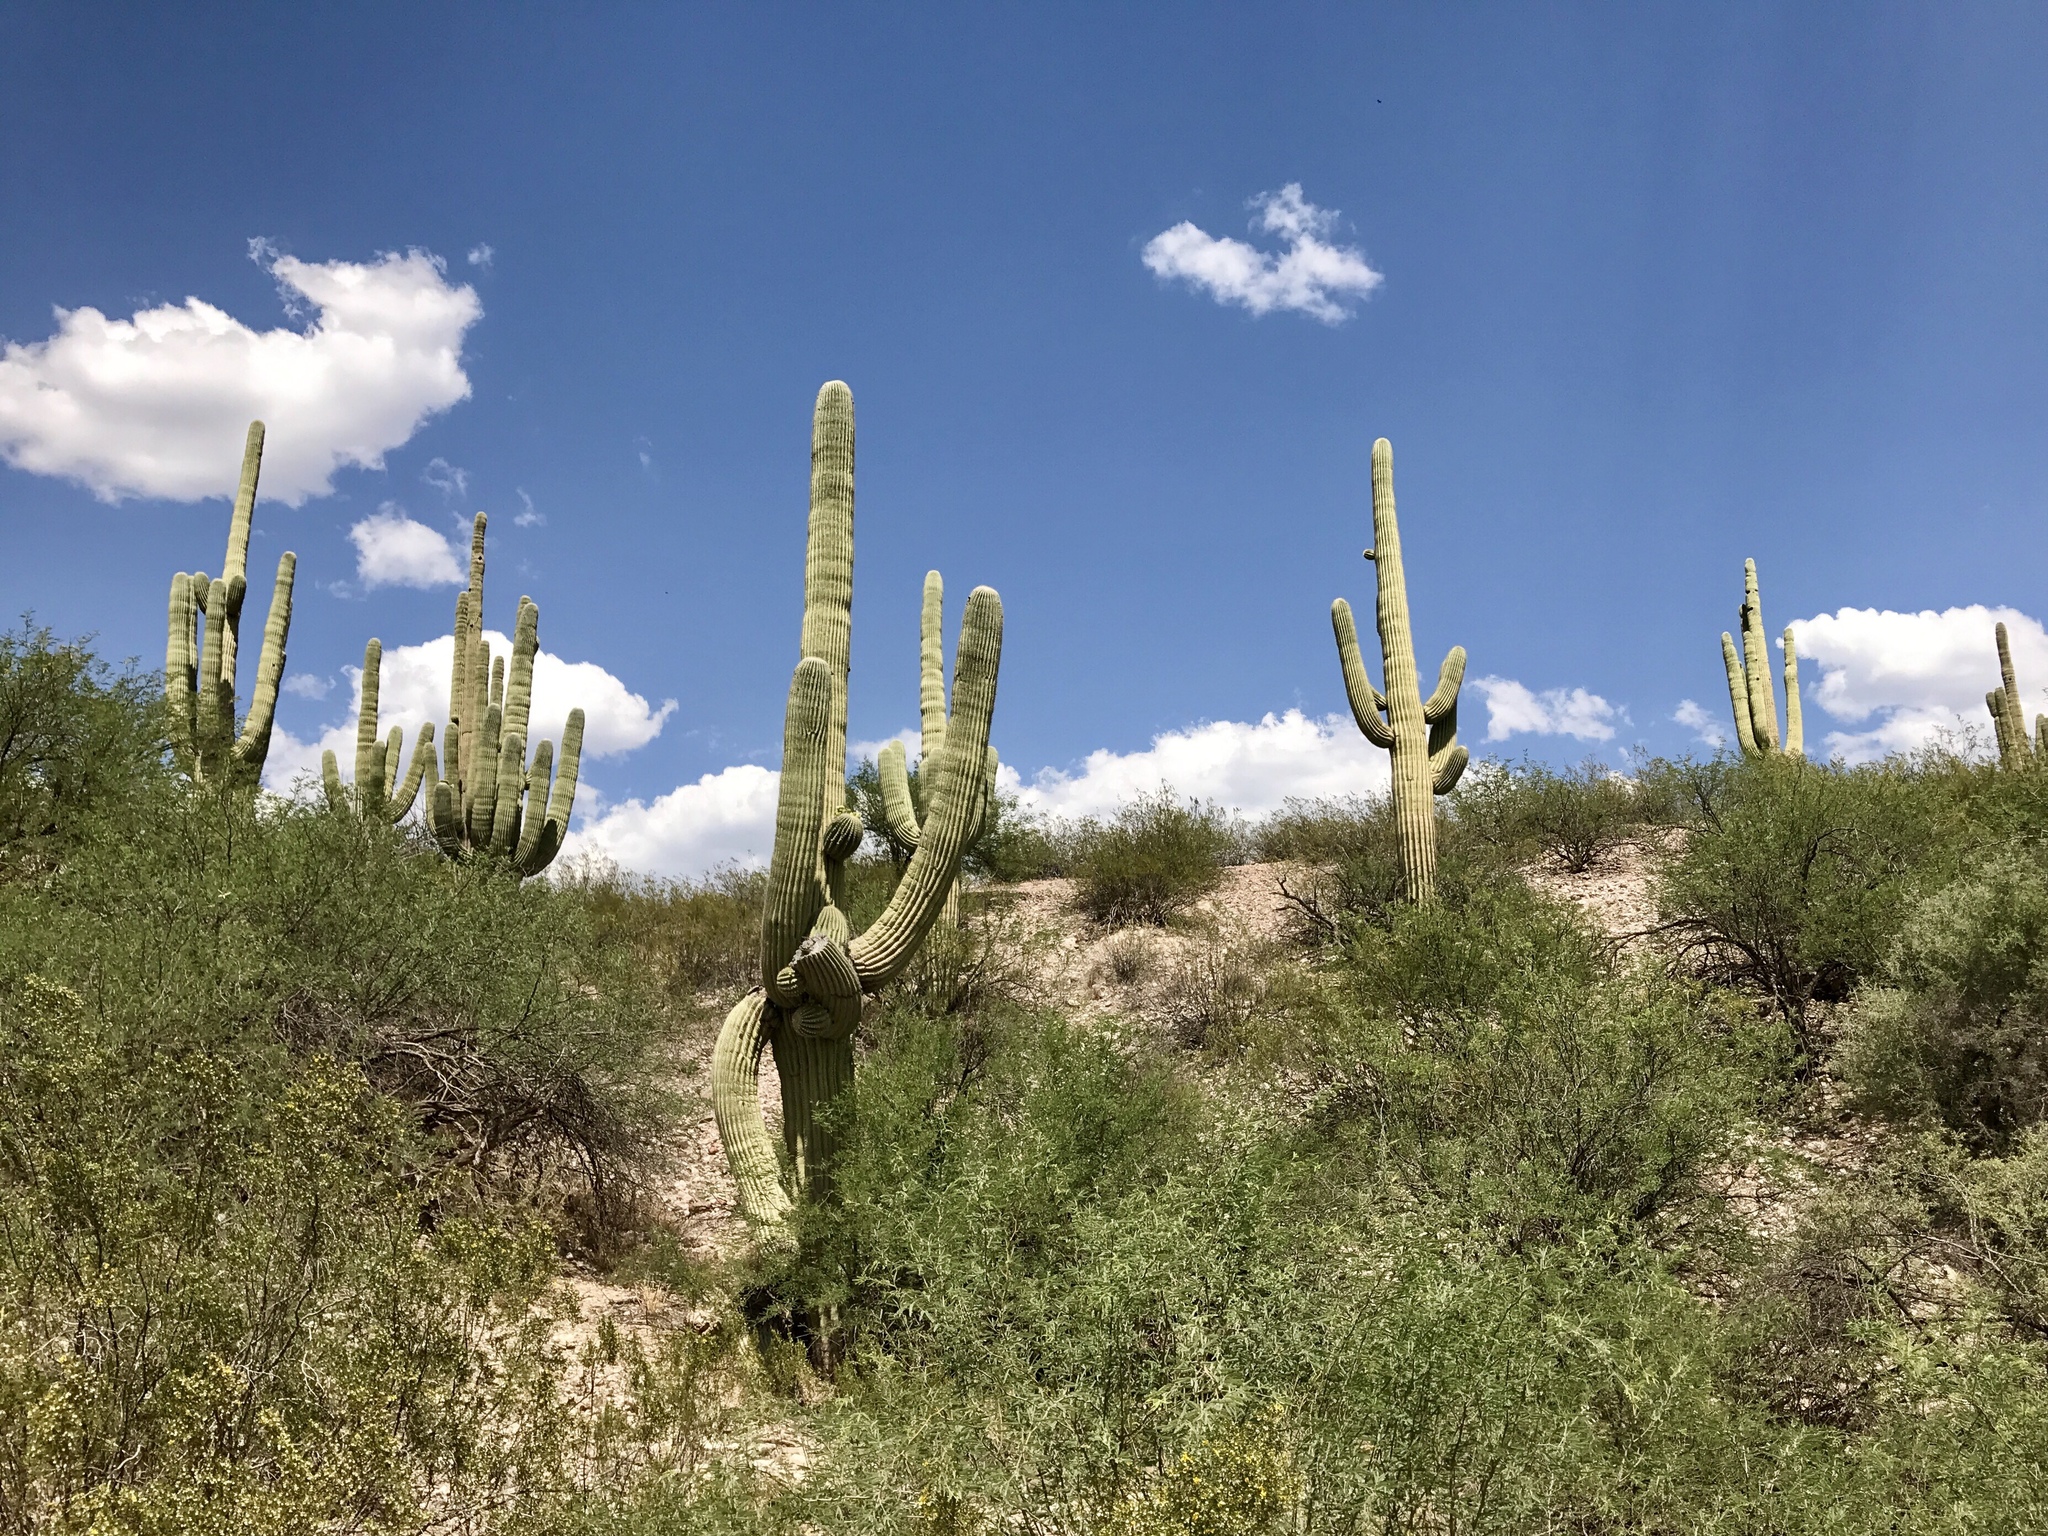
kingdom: Plantae
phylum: Tracheophyta
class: Magnoliopsida
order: Caryophyllales
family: Cactaceae
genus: Carnegiea
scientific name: Carnegiea gigantea
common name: Saguaro
